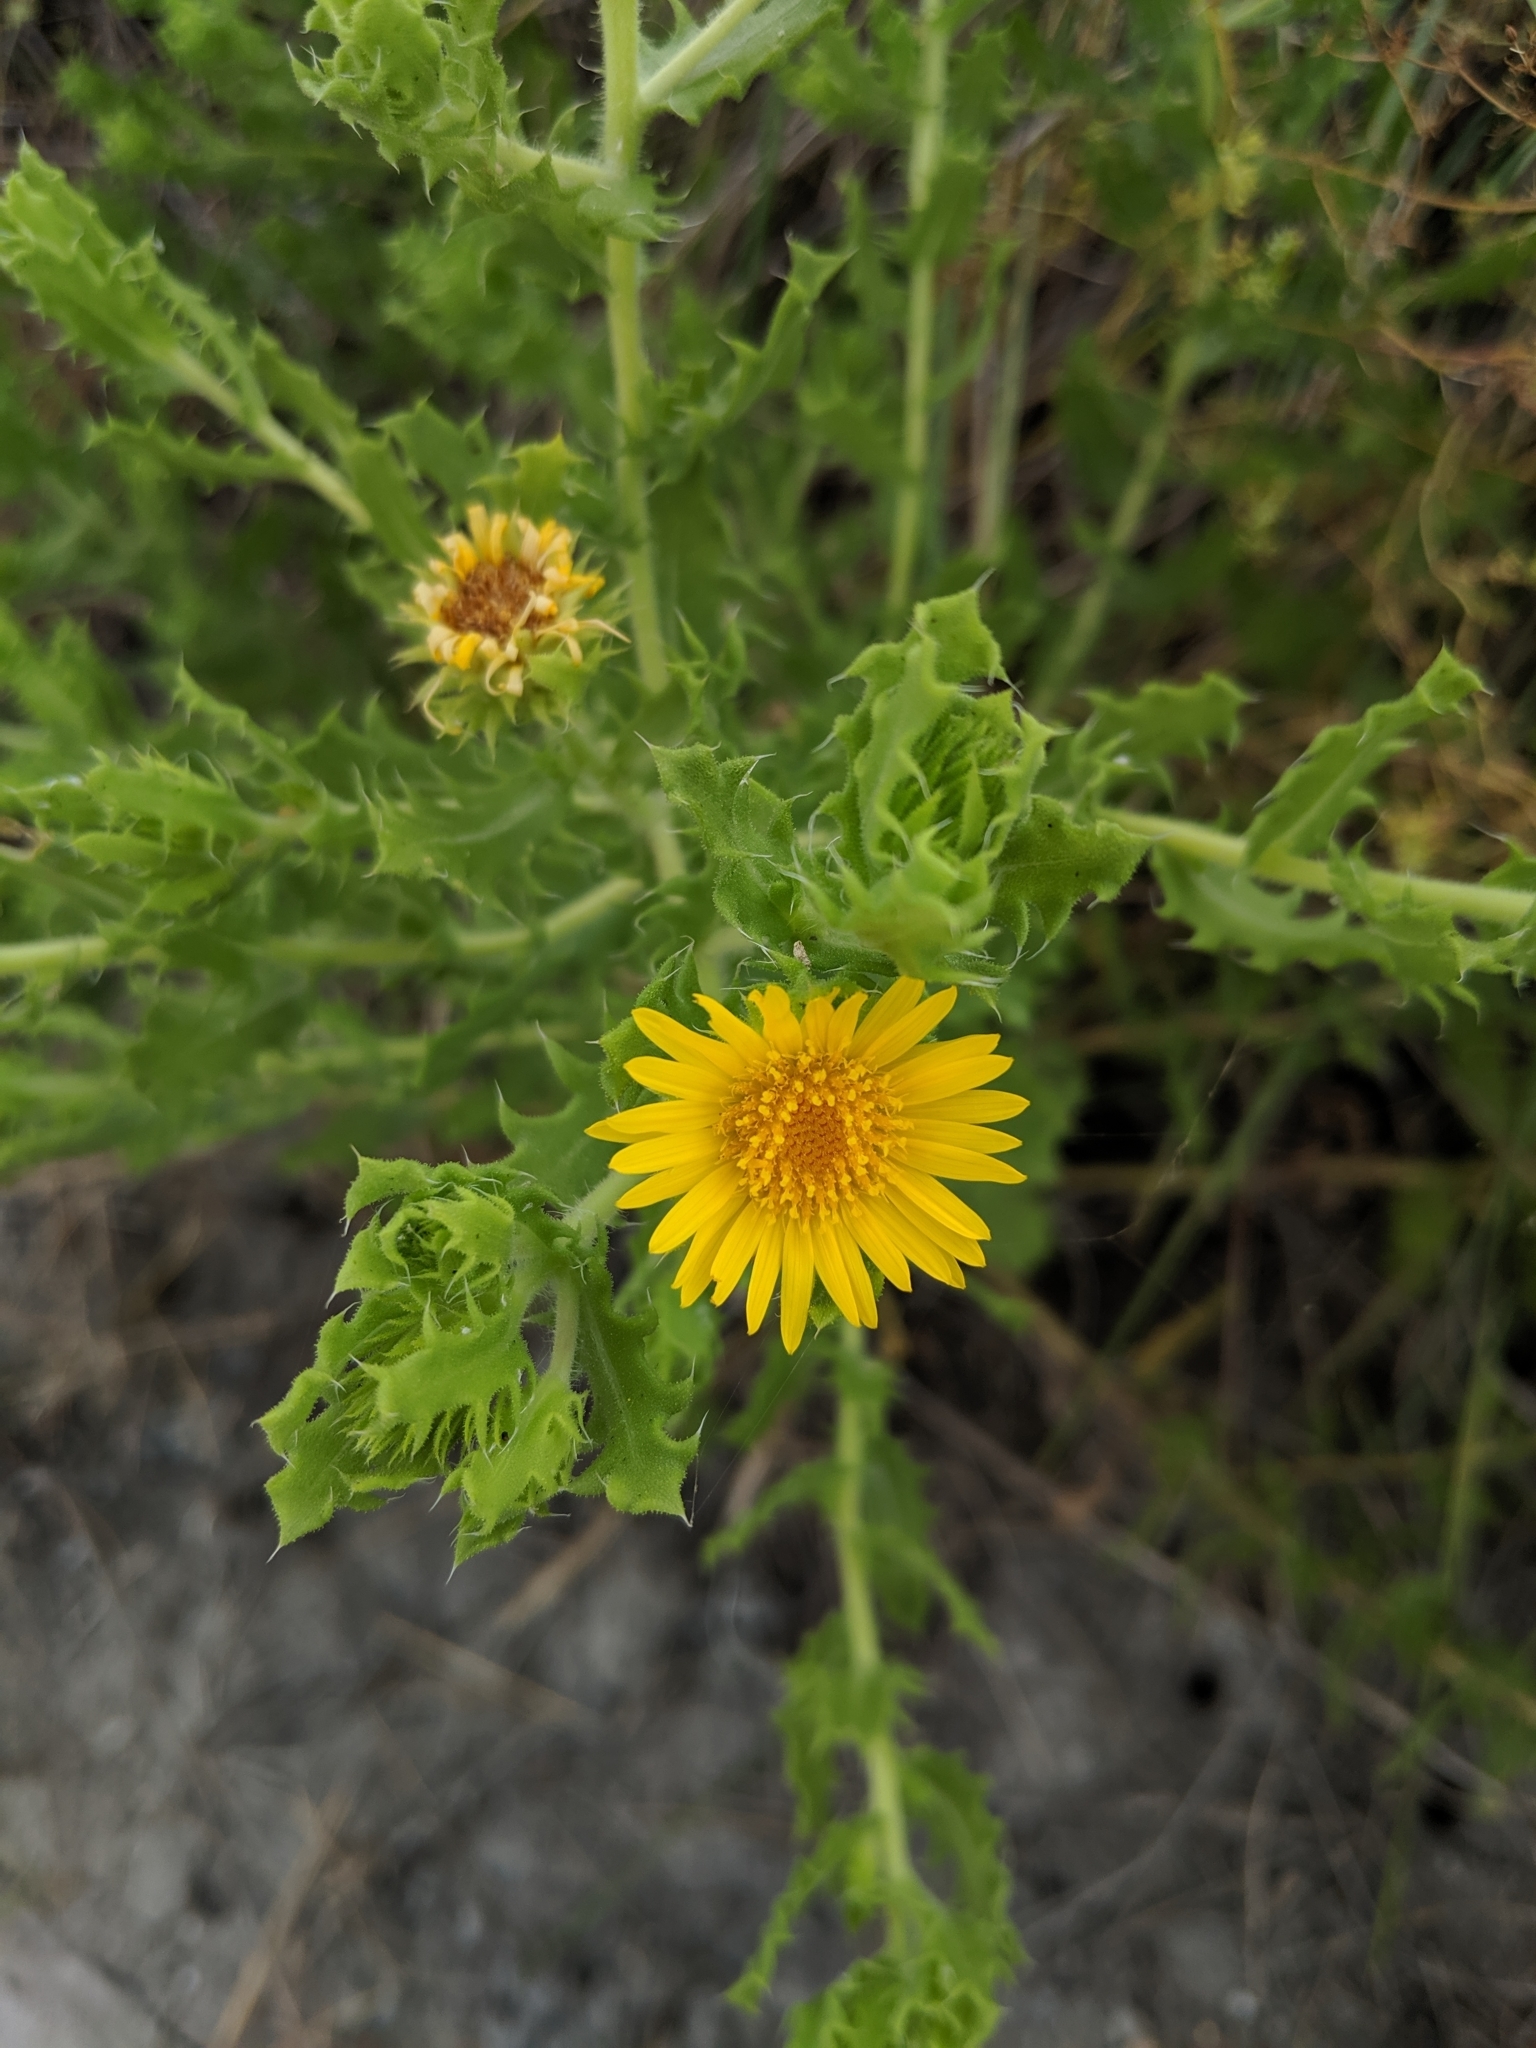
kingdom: Plantae
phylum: Tracheophyta
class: Magnoliopsida
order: Asterales
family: Asteraceae
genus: Rayjacksonia
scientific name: Rayjacksonia phyllocephala
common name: Gulf coast camphor daisy
